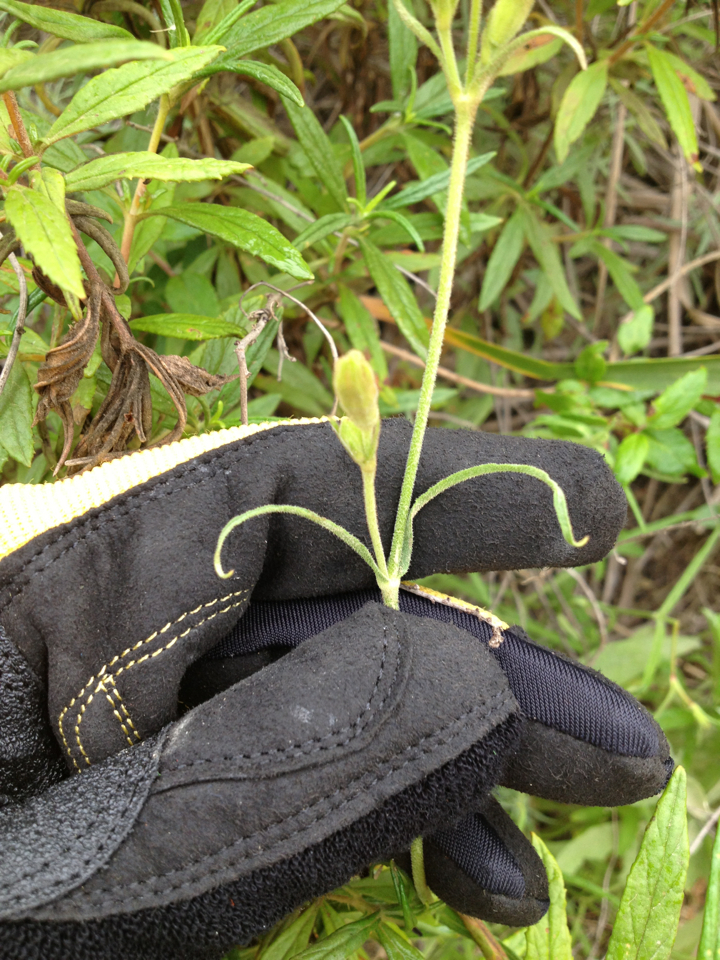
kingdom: Plantae
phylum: Tracheophyta
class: Magnoliopsida
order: Caryophyllales
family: Caryophyllaceae
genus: Silene
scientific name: Silene laciniata
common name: Indian-pink
